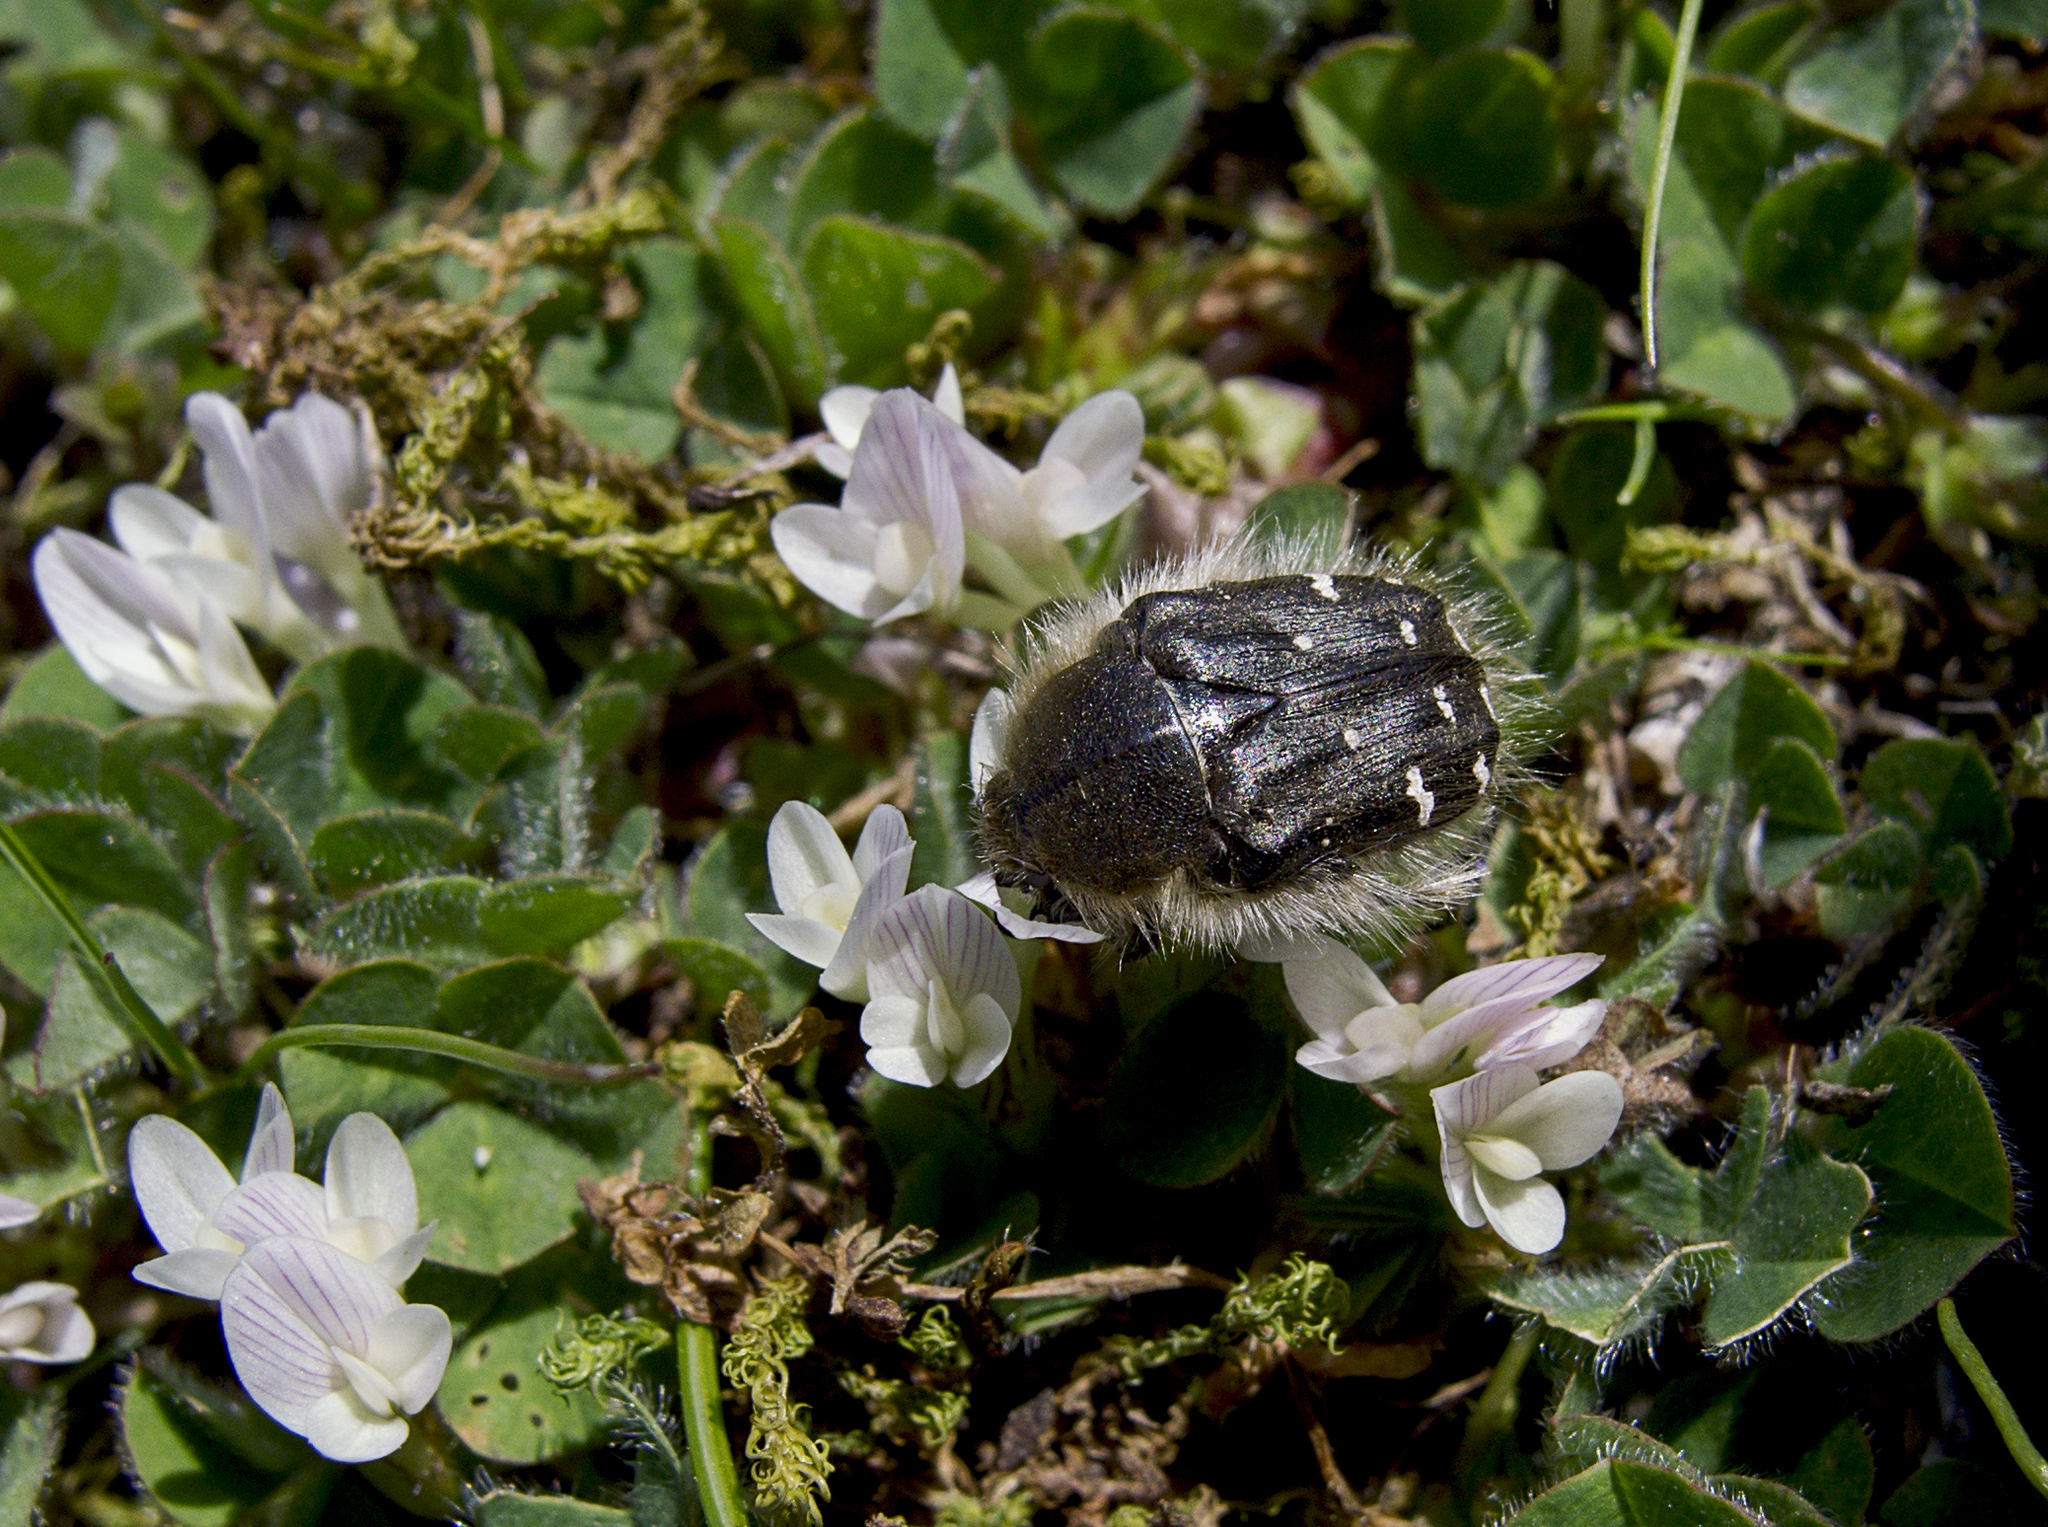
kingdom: Animalia
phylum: Arthropoda
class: Insecta
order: Coleoptera
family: Scarabaeidae
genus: Tropinota
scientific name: Tropinota hirta
